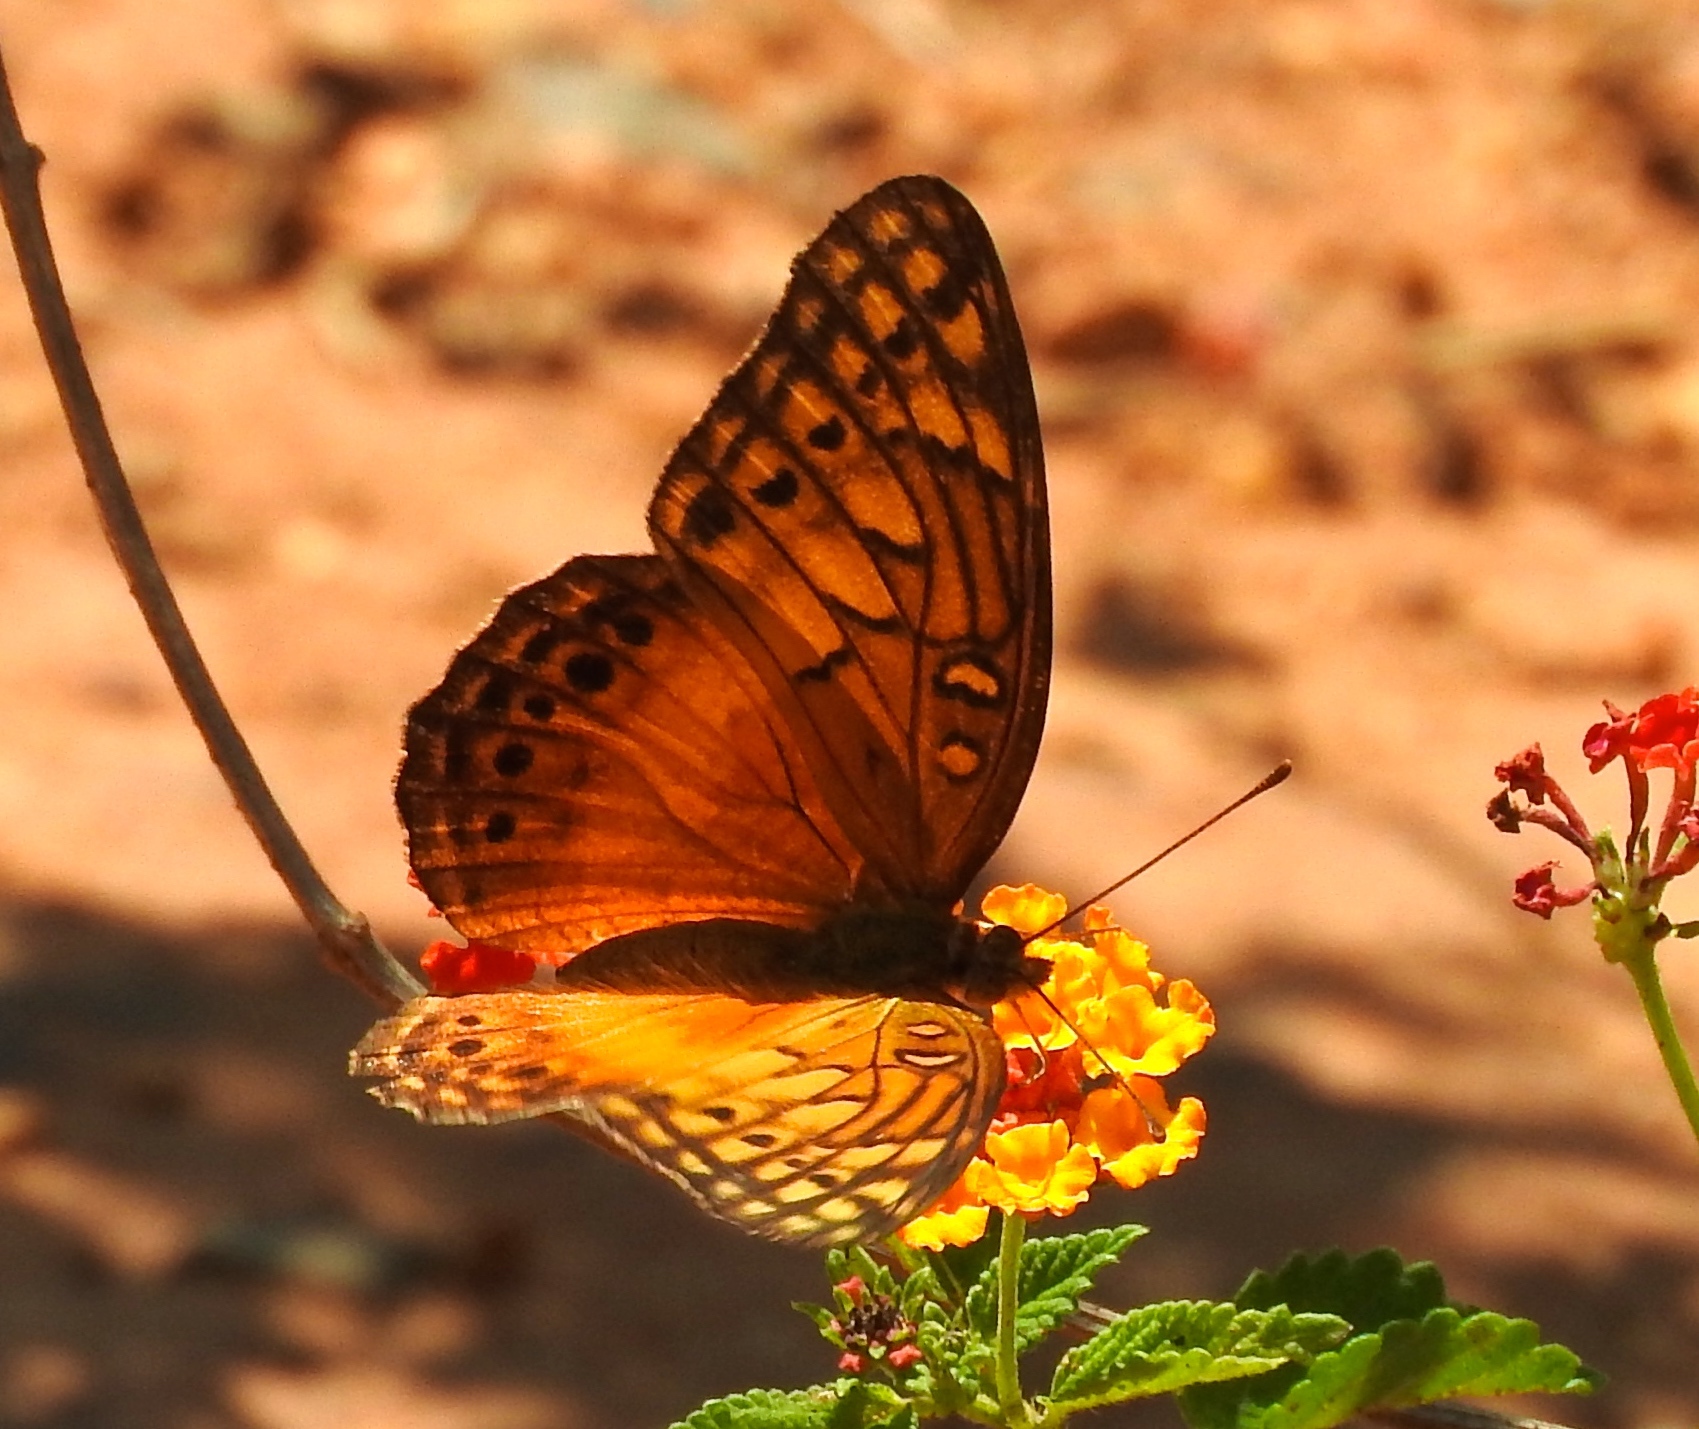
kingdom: Plantae
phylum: Tracheophyta
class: Magnoliopsida
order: Lamiales
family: Verbenaceae
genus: Lantana
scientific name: Lantana camara
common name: Lantana
